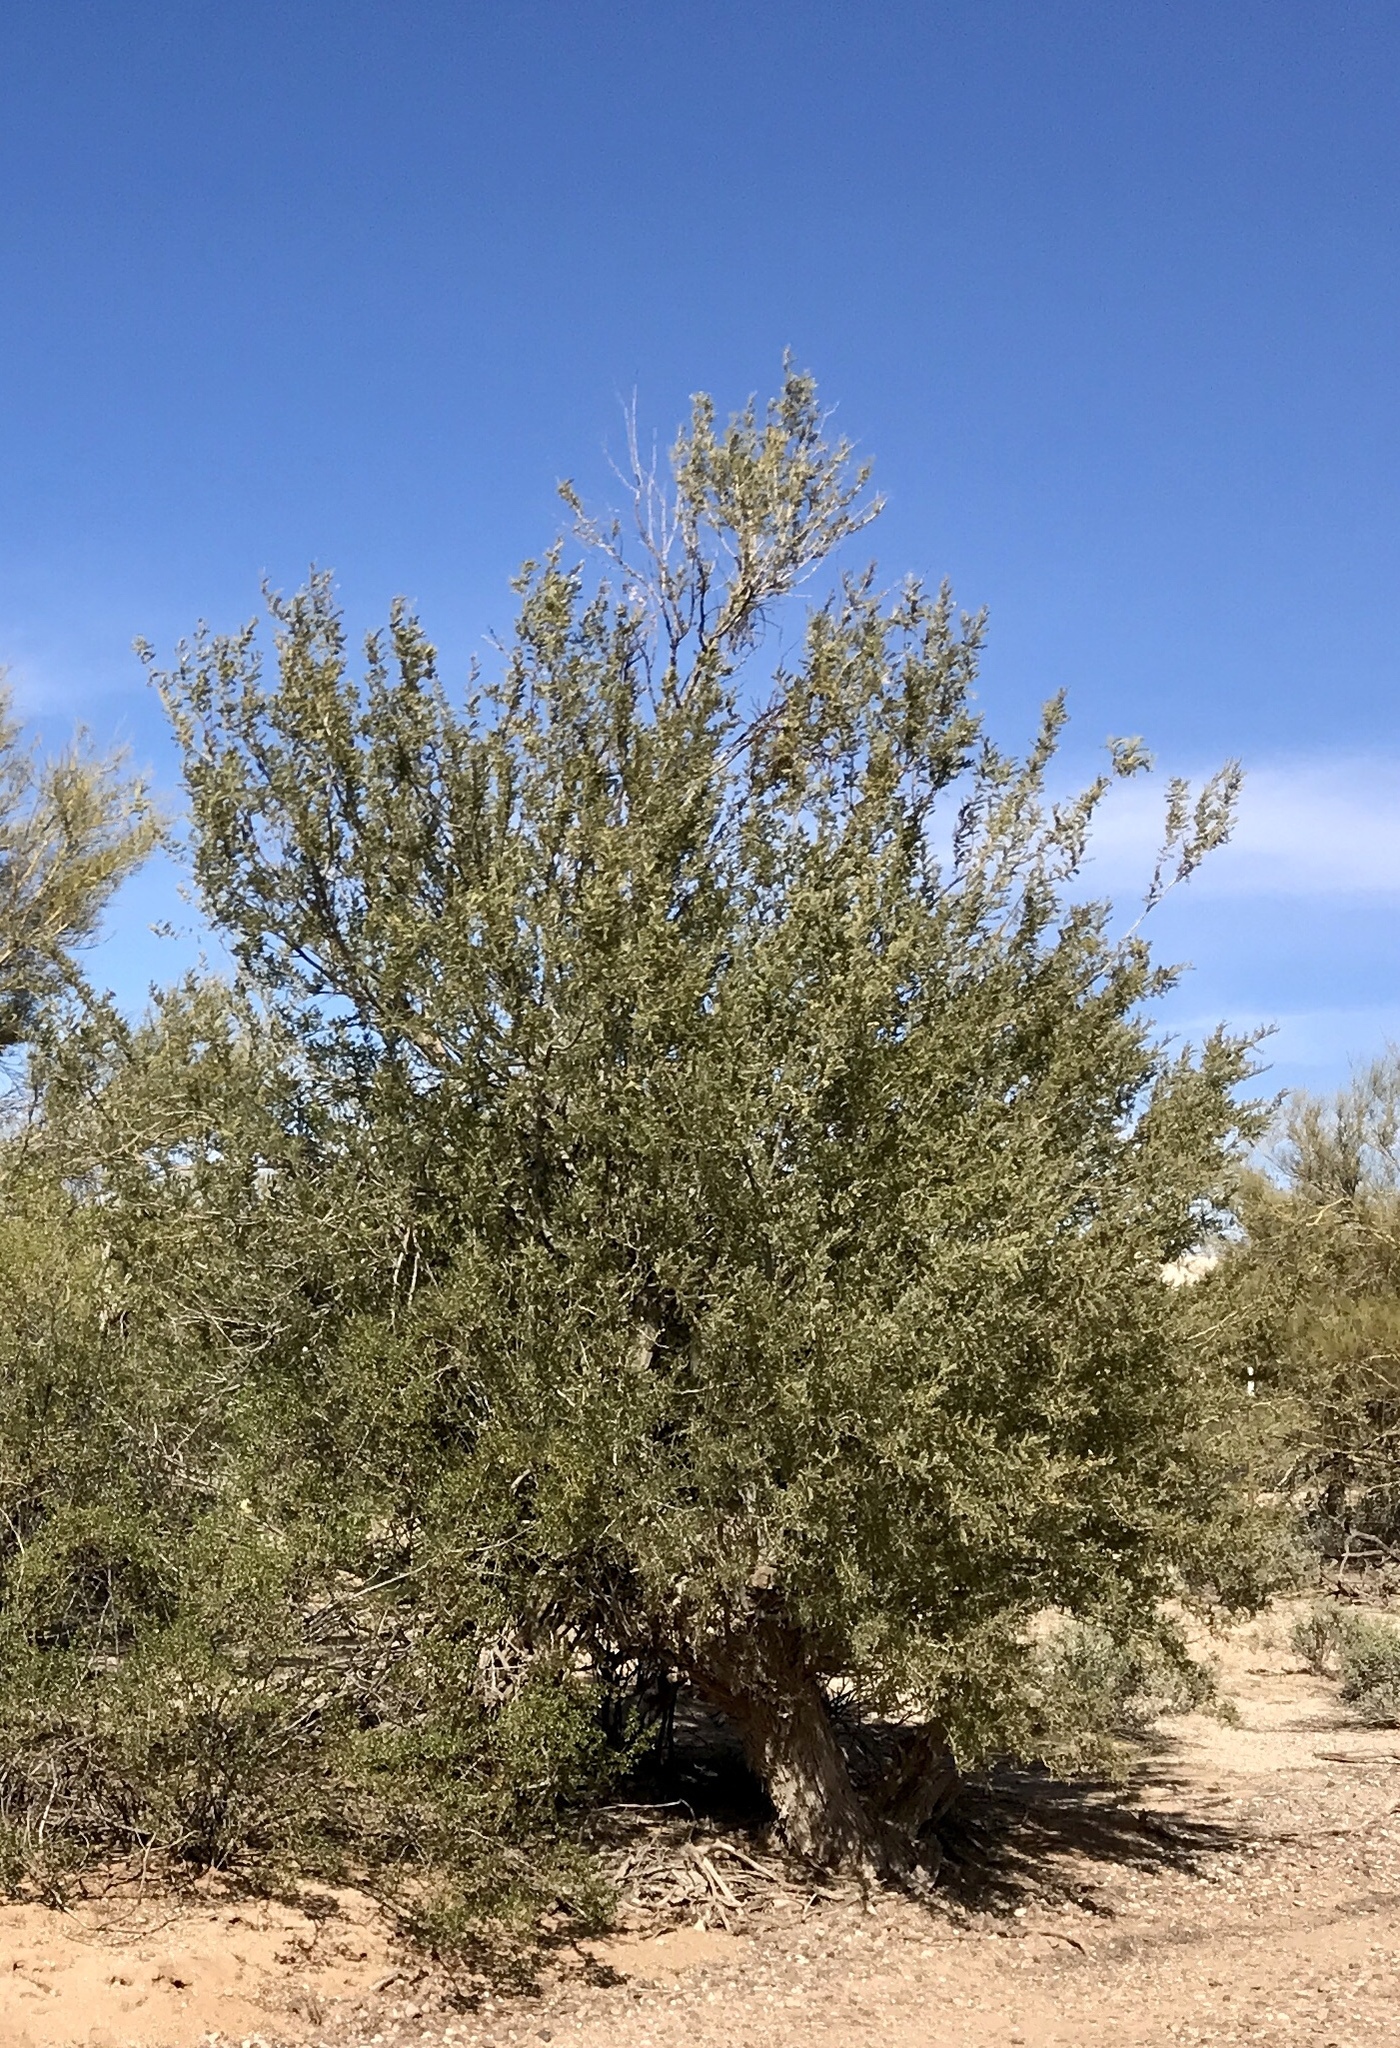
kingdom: Plantae
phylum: Tracheophyta
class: Magnoliopsida
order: Fabales
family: Fabaceae
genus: Olneya
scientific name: Olneya tesota
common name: Desert ironwood
